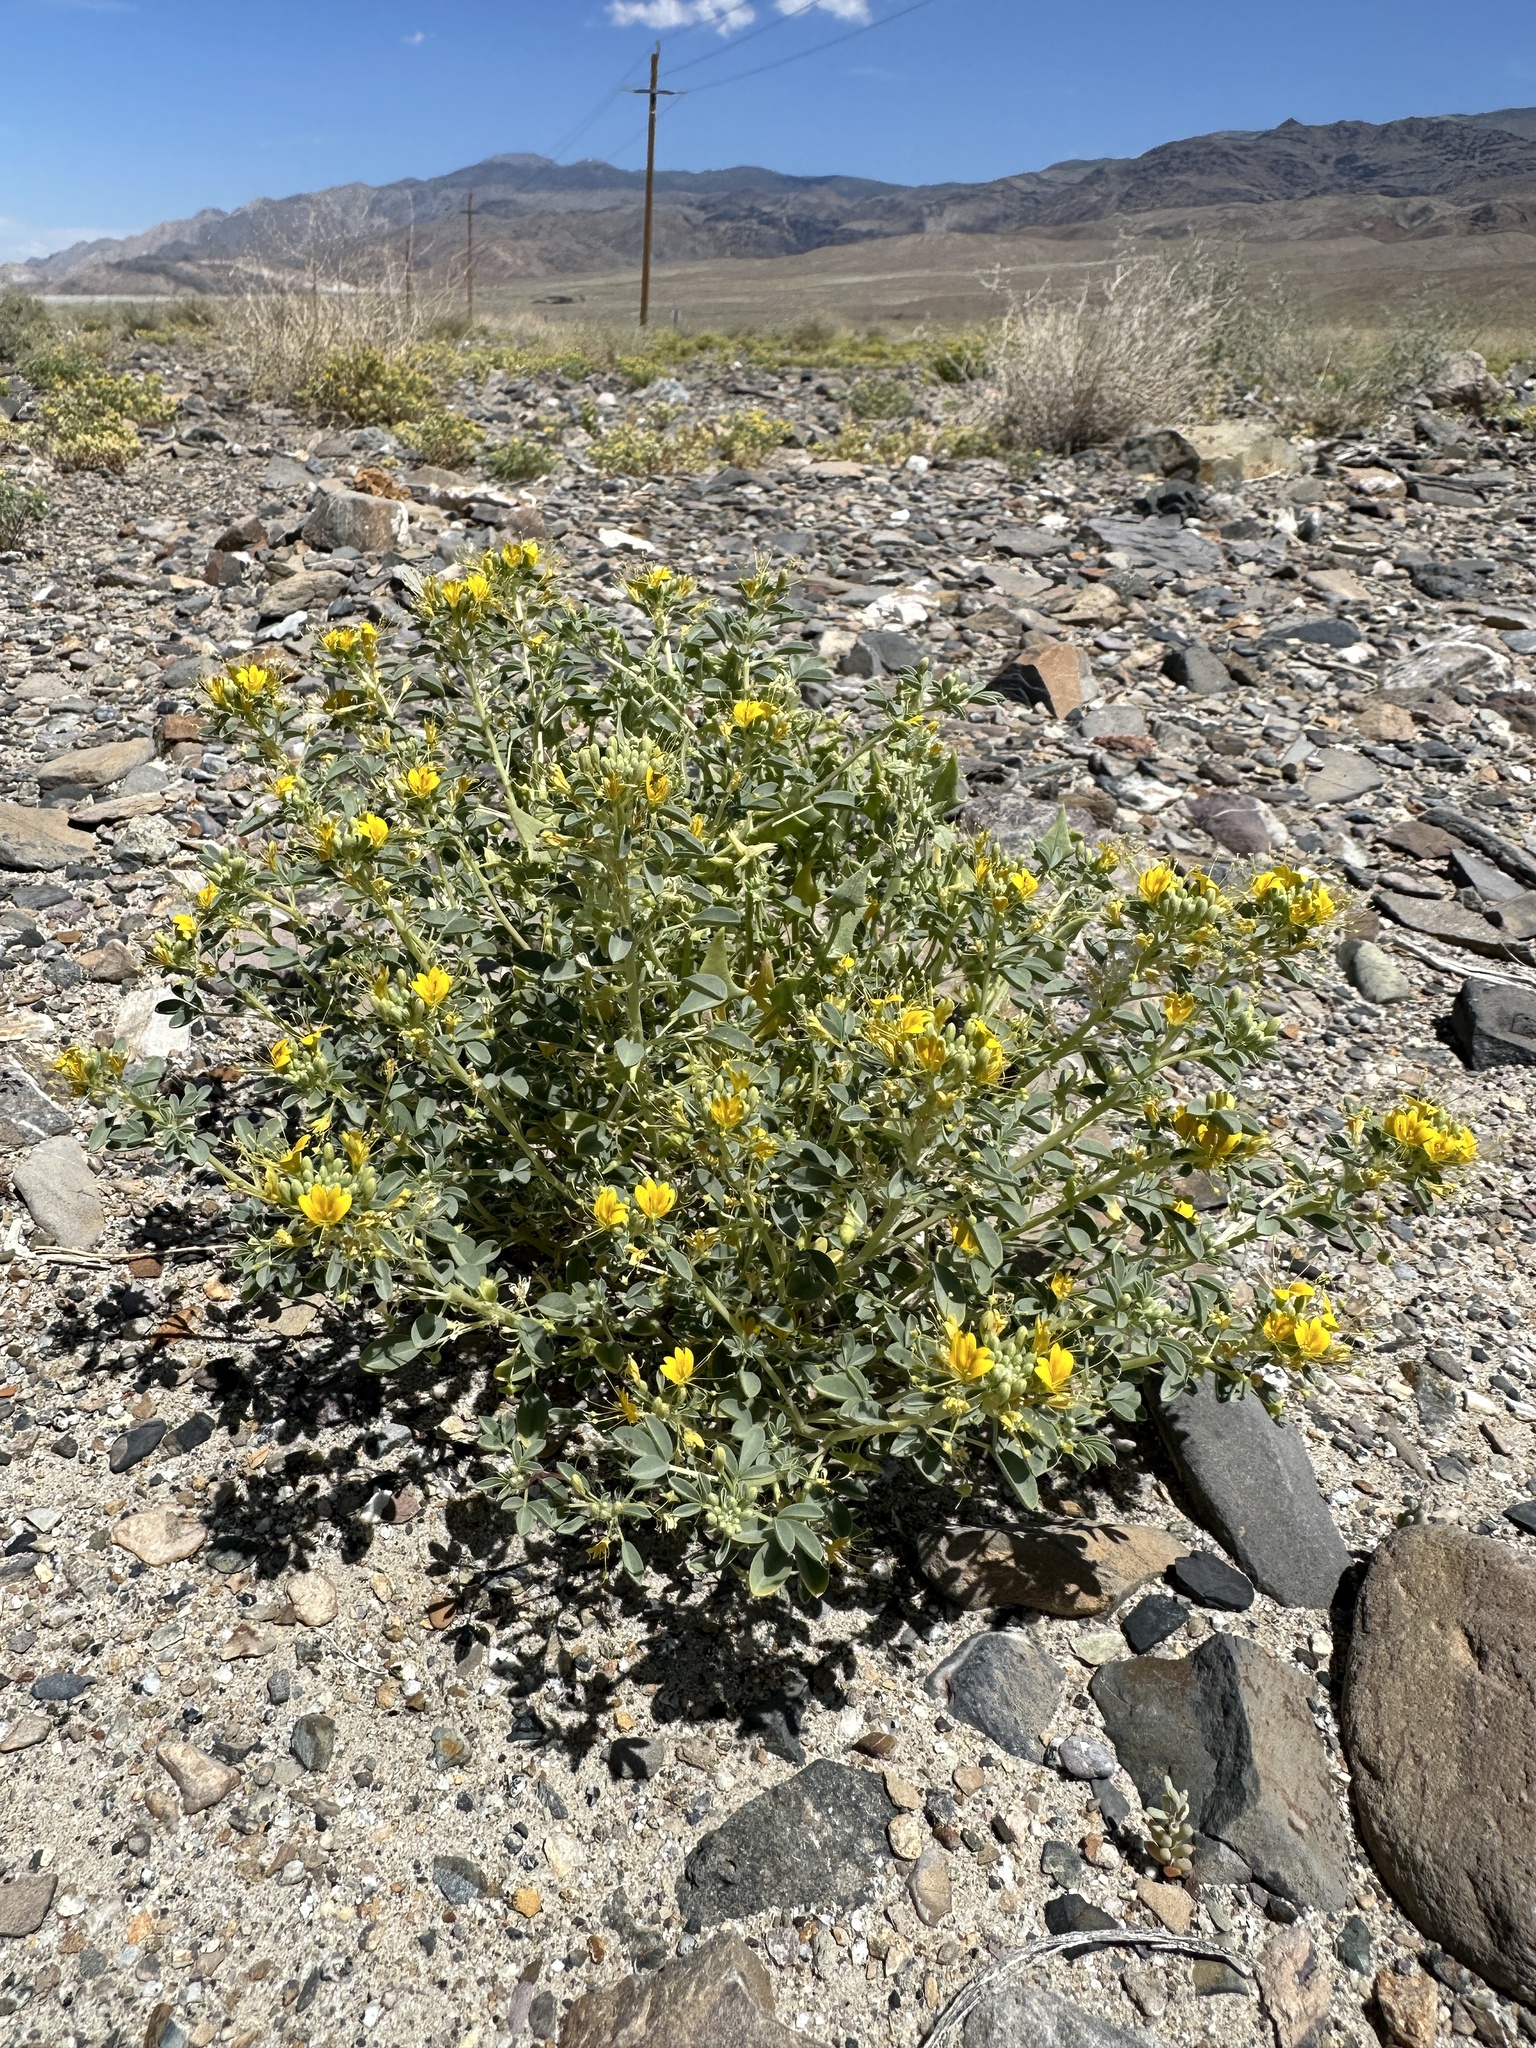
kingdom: Plantae
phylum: Tracheophyta
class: Magnoliopsida
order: Brassicales
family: Cleomaceae
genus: Cleomella
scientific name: Cleomella obtusifolia
